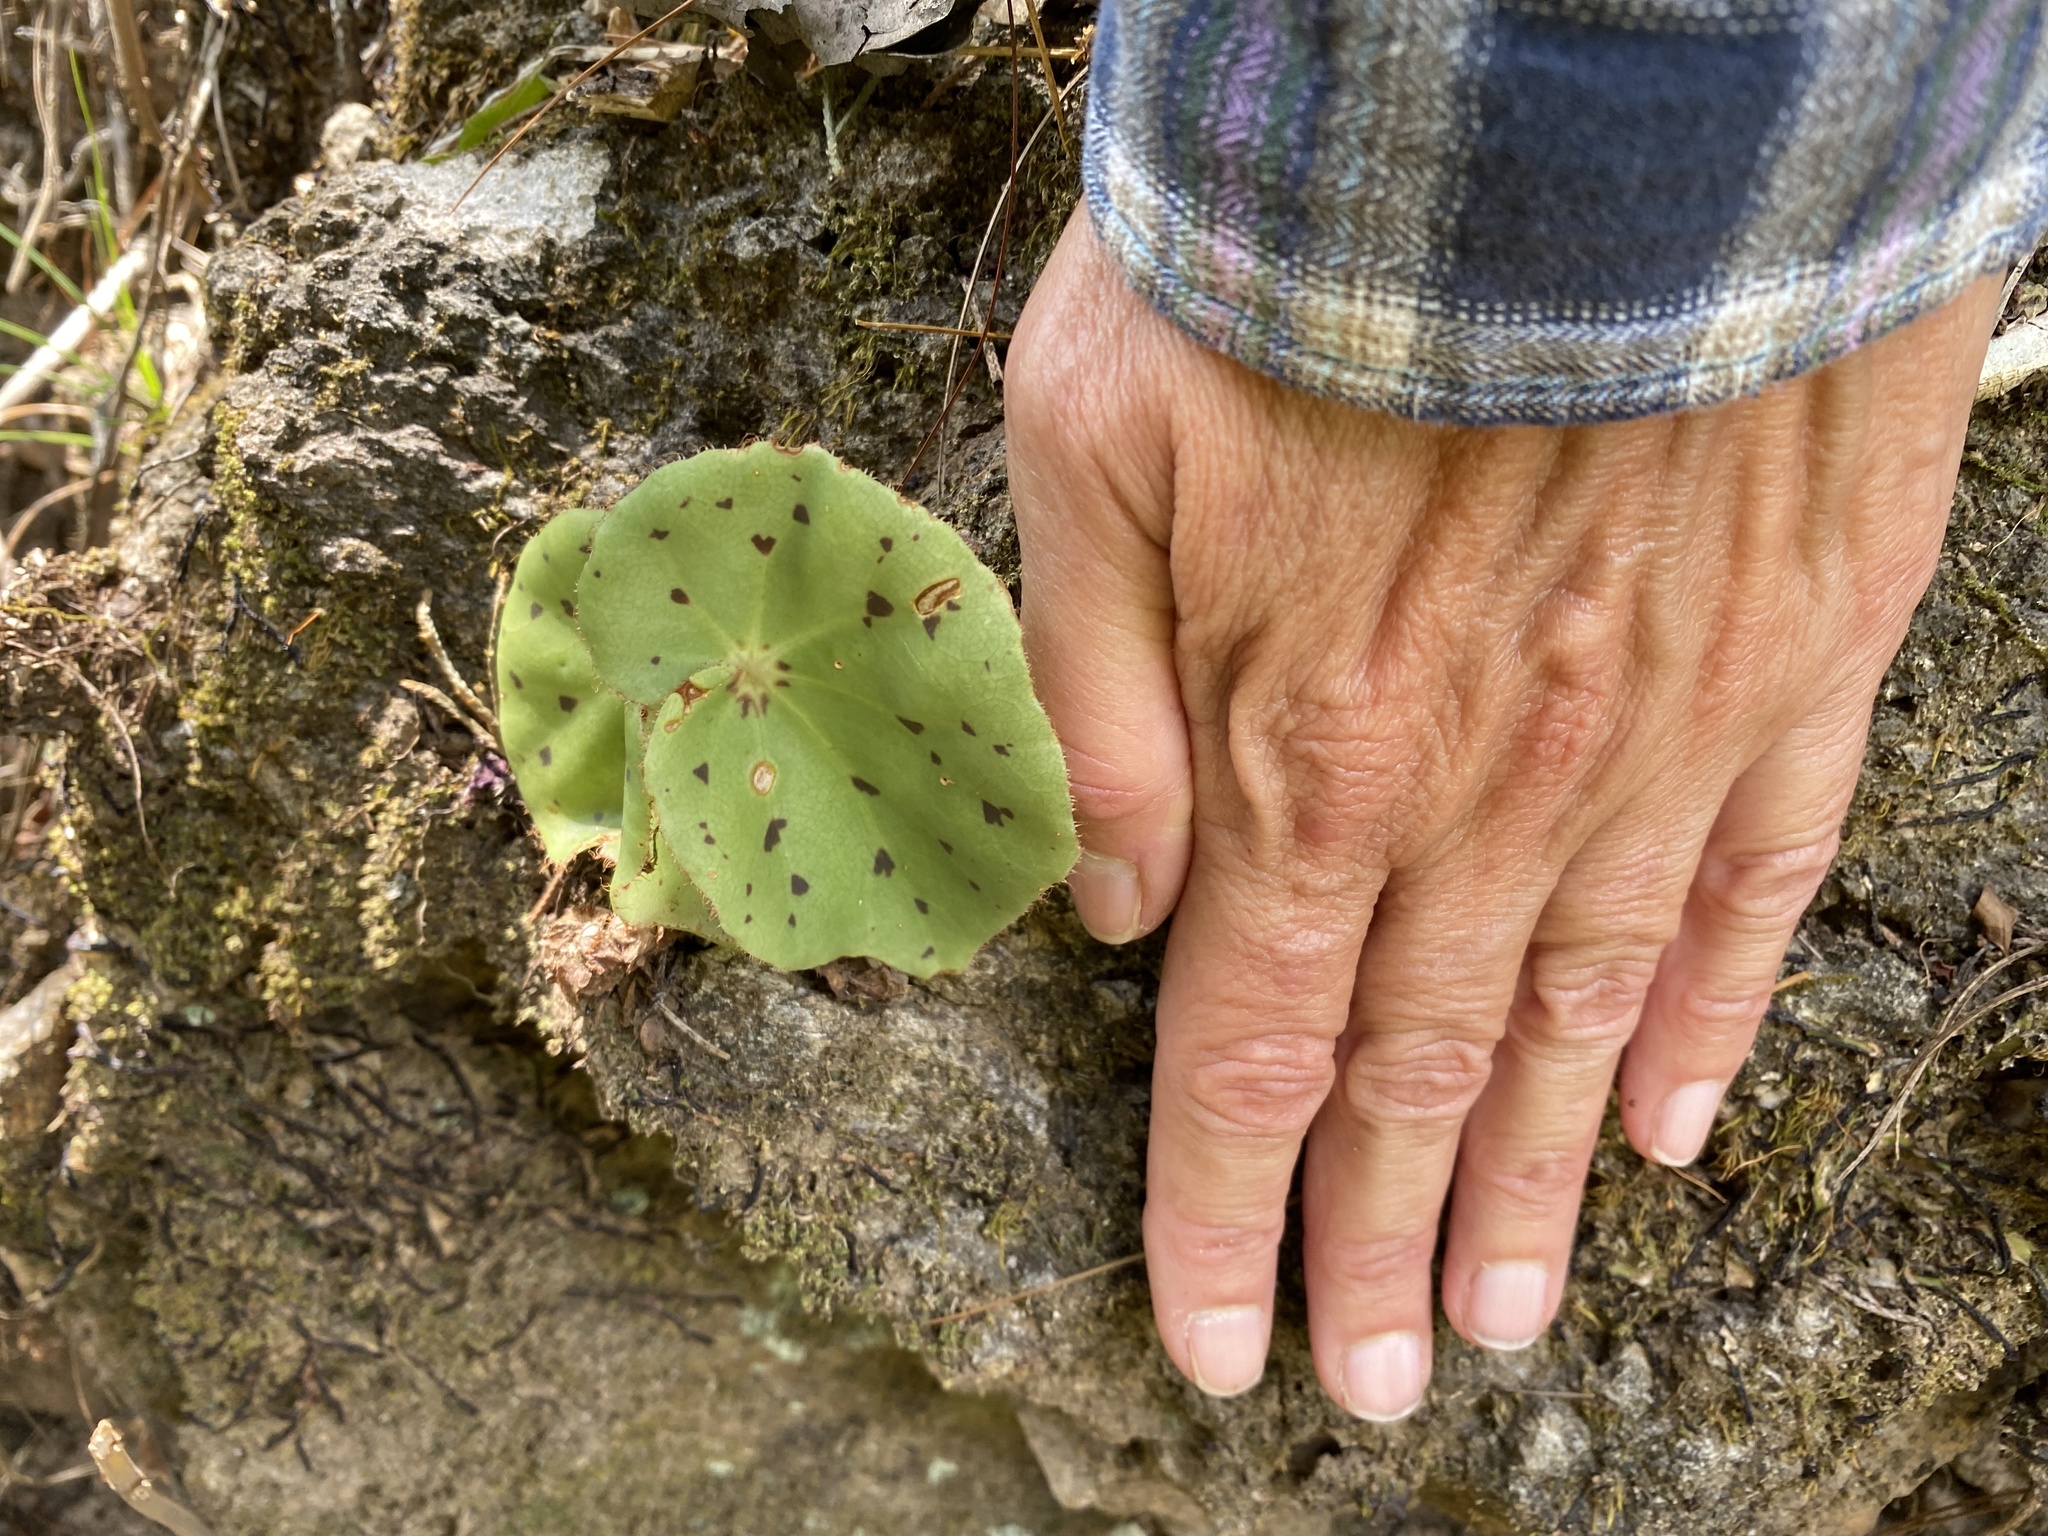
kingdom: Plantae
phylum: Tracheophyta
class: Magnoliopsida
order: Cucurbitales
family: Begoniaceae
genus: Begonia
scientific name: Begonia motozintlensis
